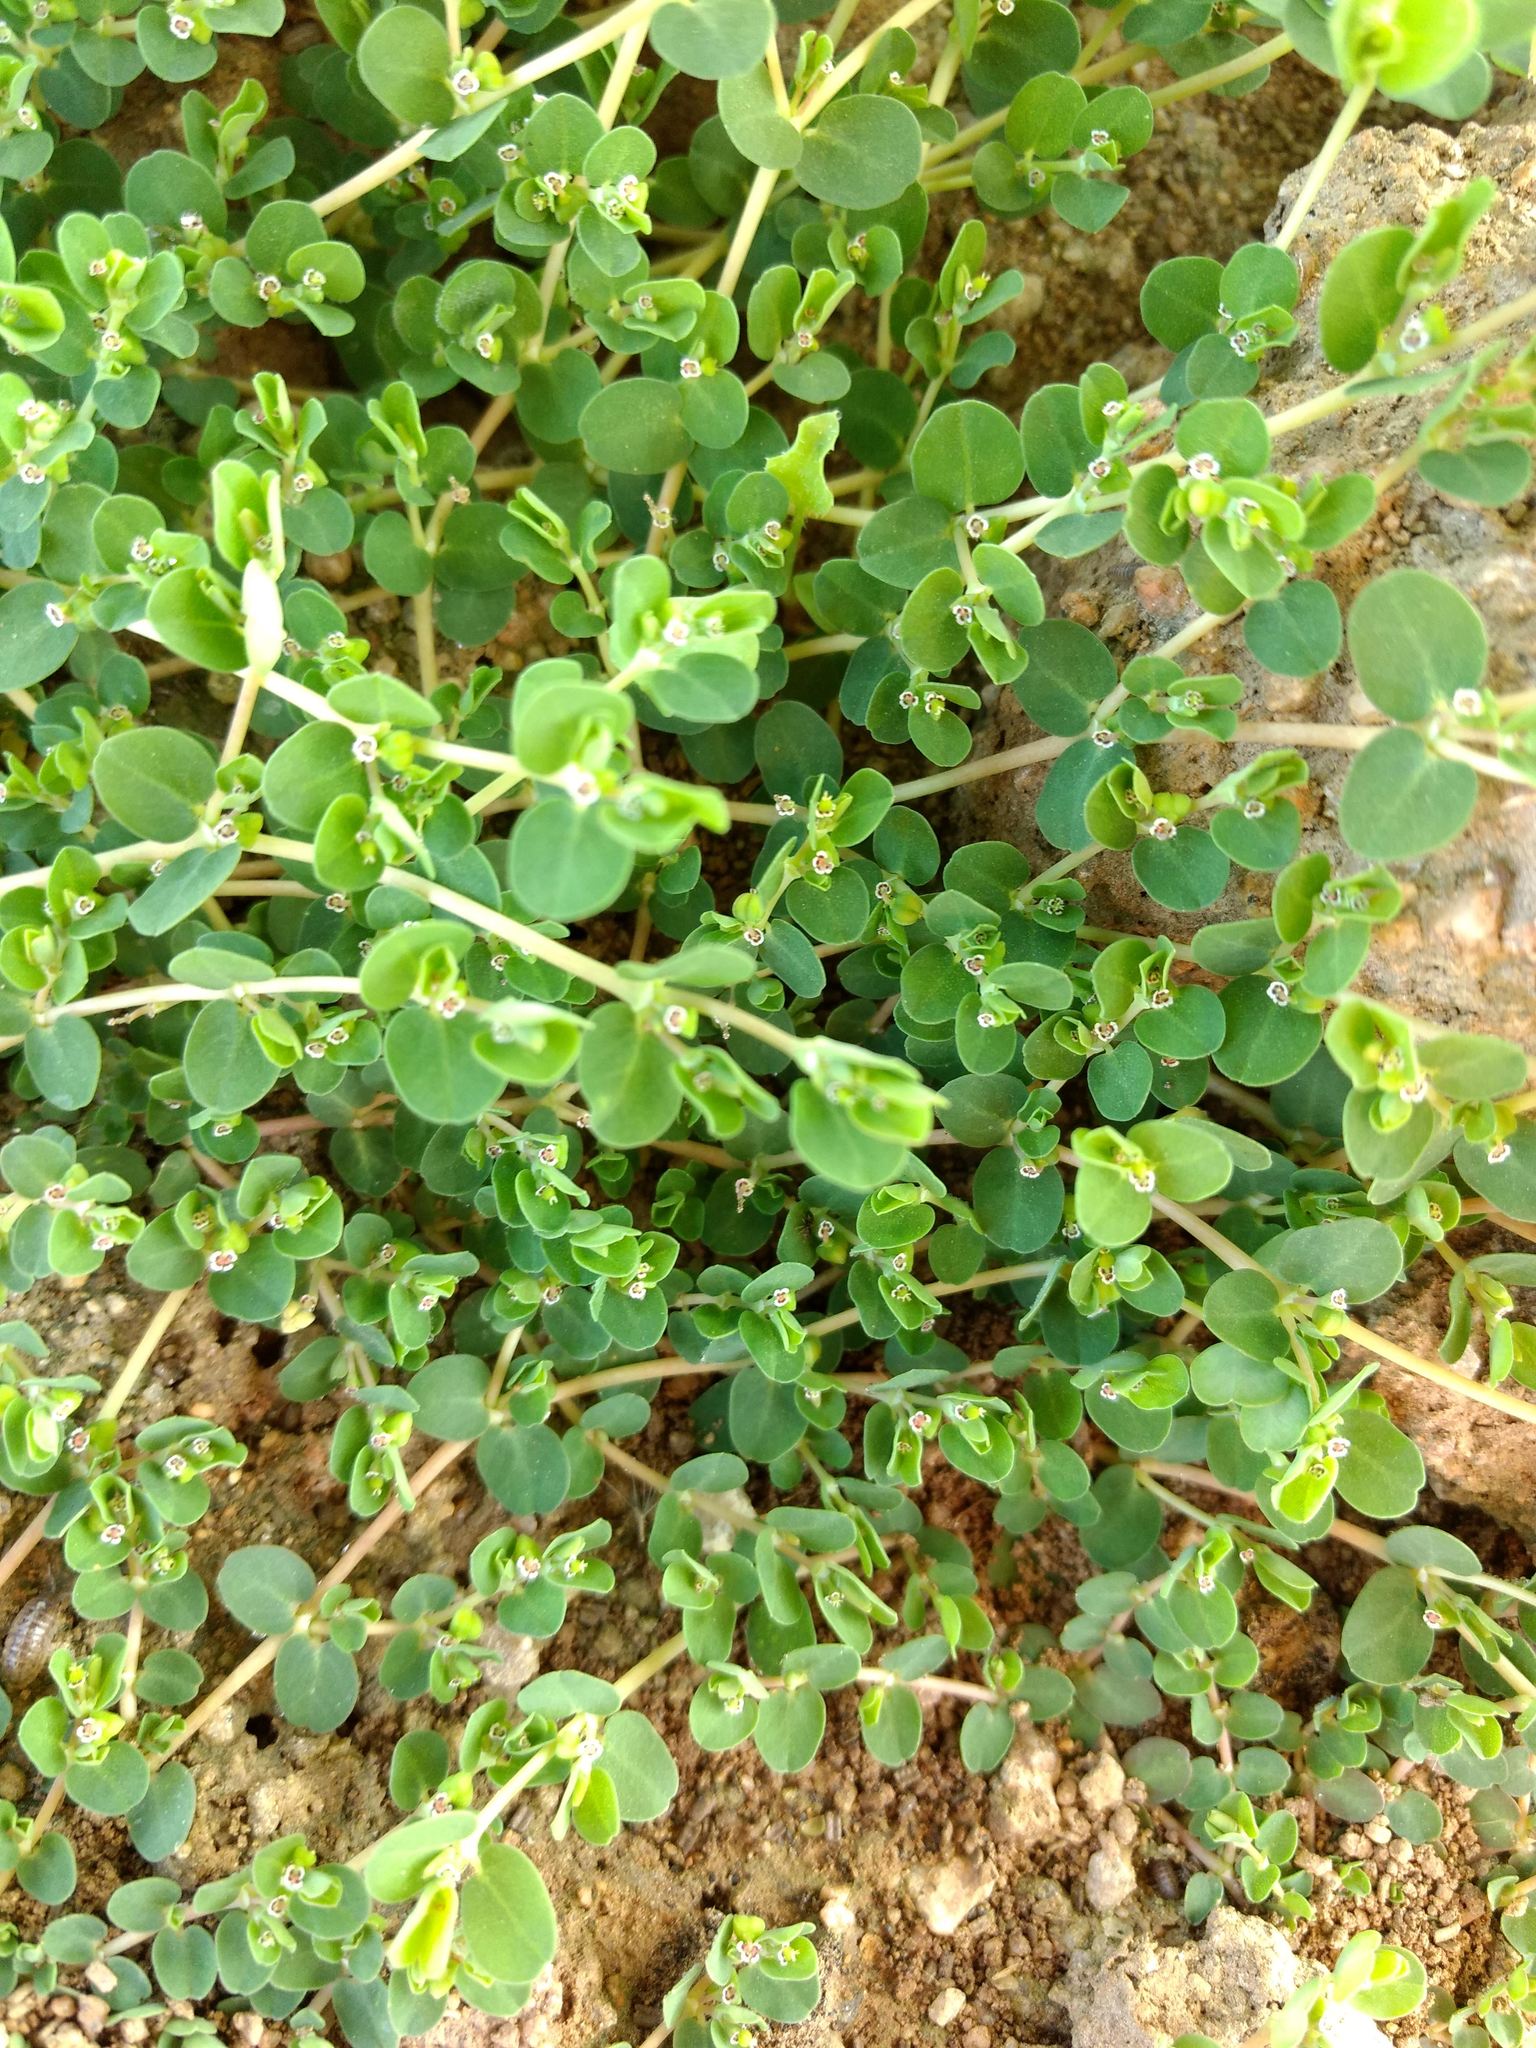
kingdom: Plantae
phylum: Tracheophyta
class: Magnoliopsida
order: Malpighiales
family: Euphorbiaceae
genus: Euphorbia
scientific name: Euphorbia serpens
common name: Matted sandmat
